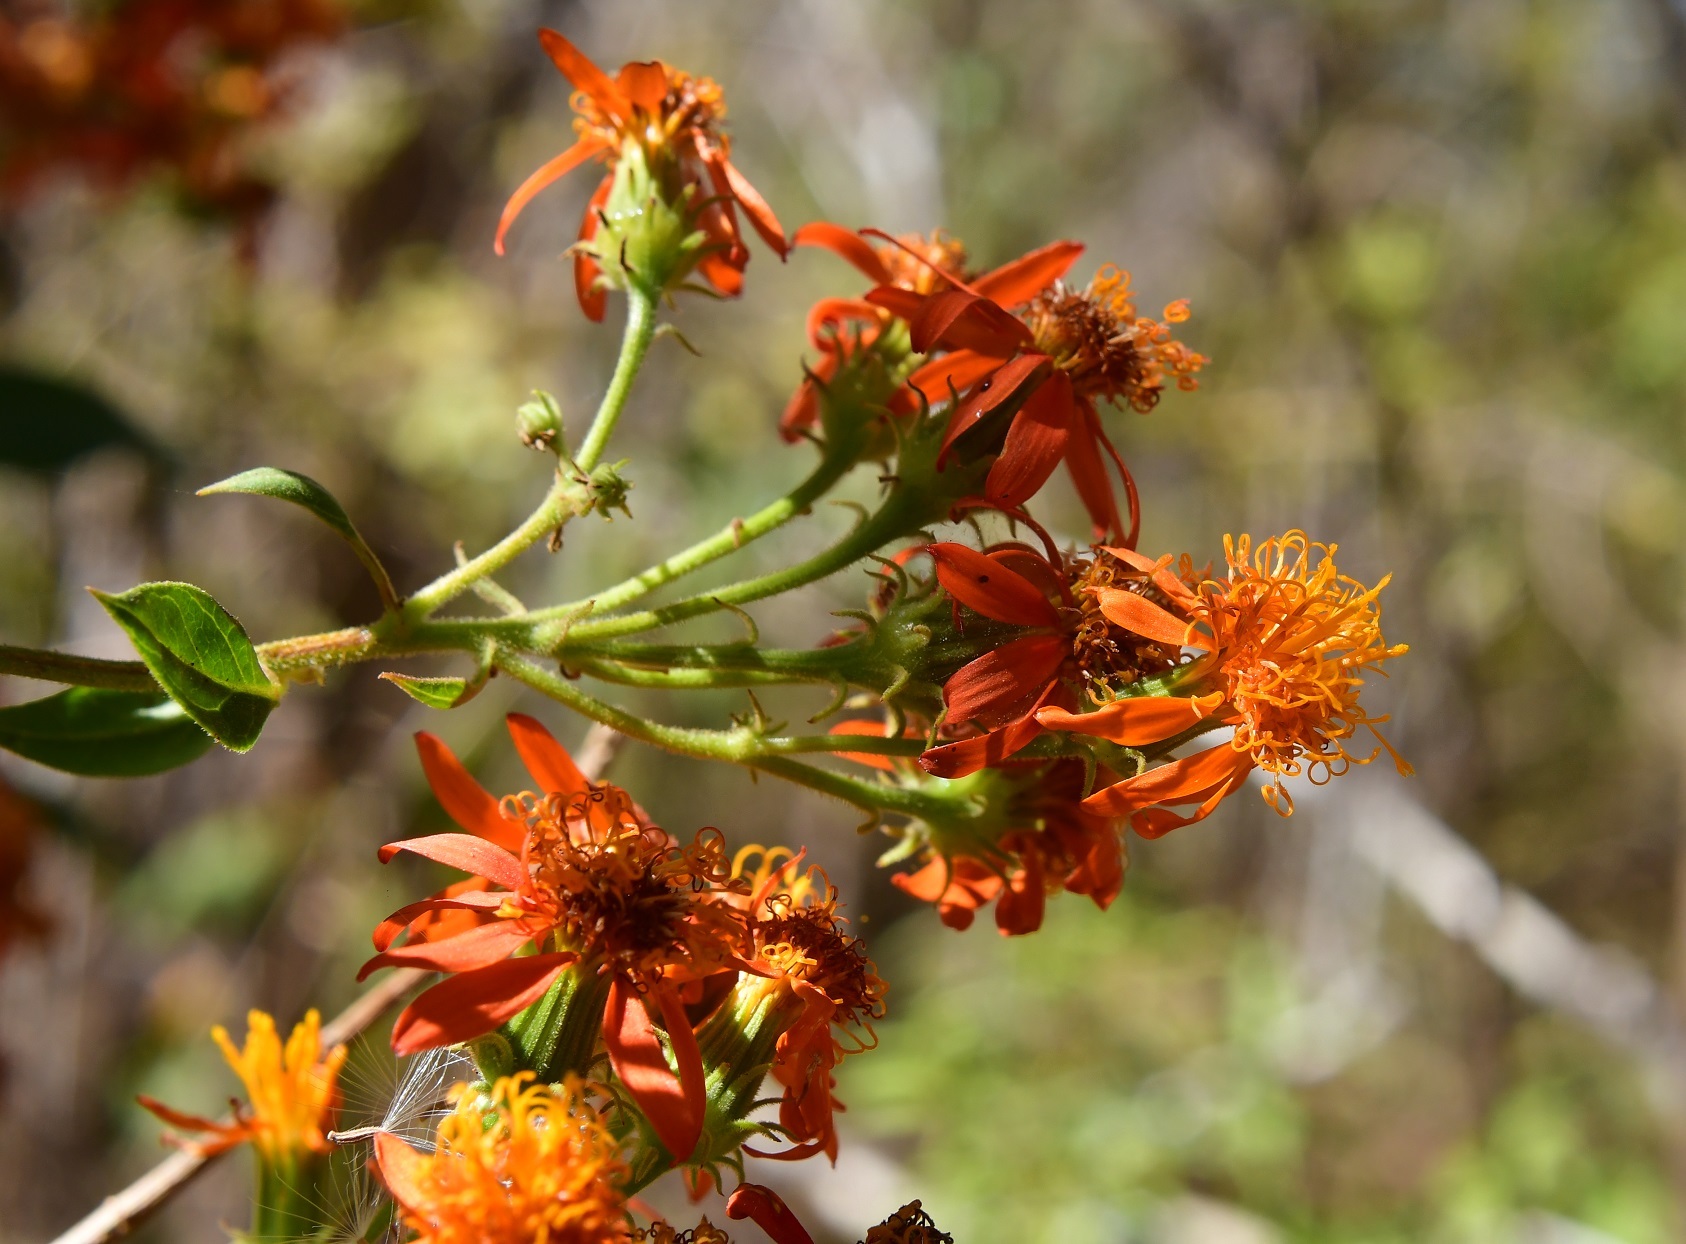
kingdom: Plantae
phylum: Tracheophyta
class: Magnoliopsida
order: Asterales
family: Asteraceae
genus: Pseudogynoxys
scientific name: Pseudogynoxys haenkei
